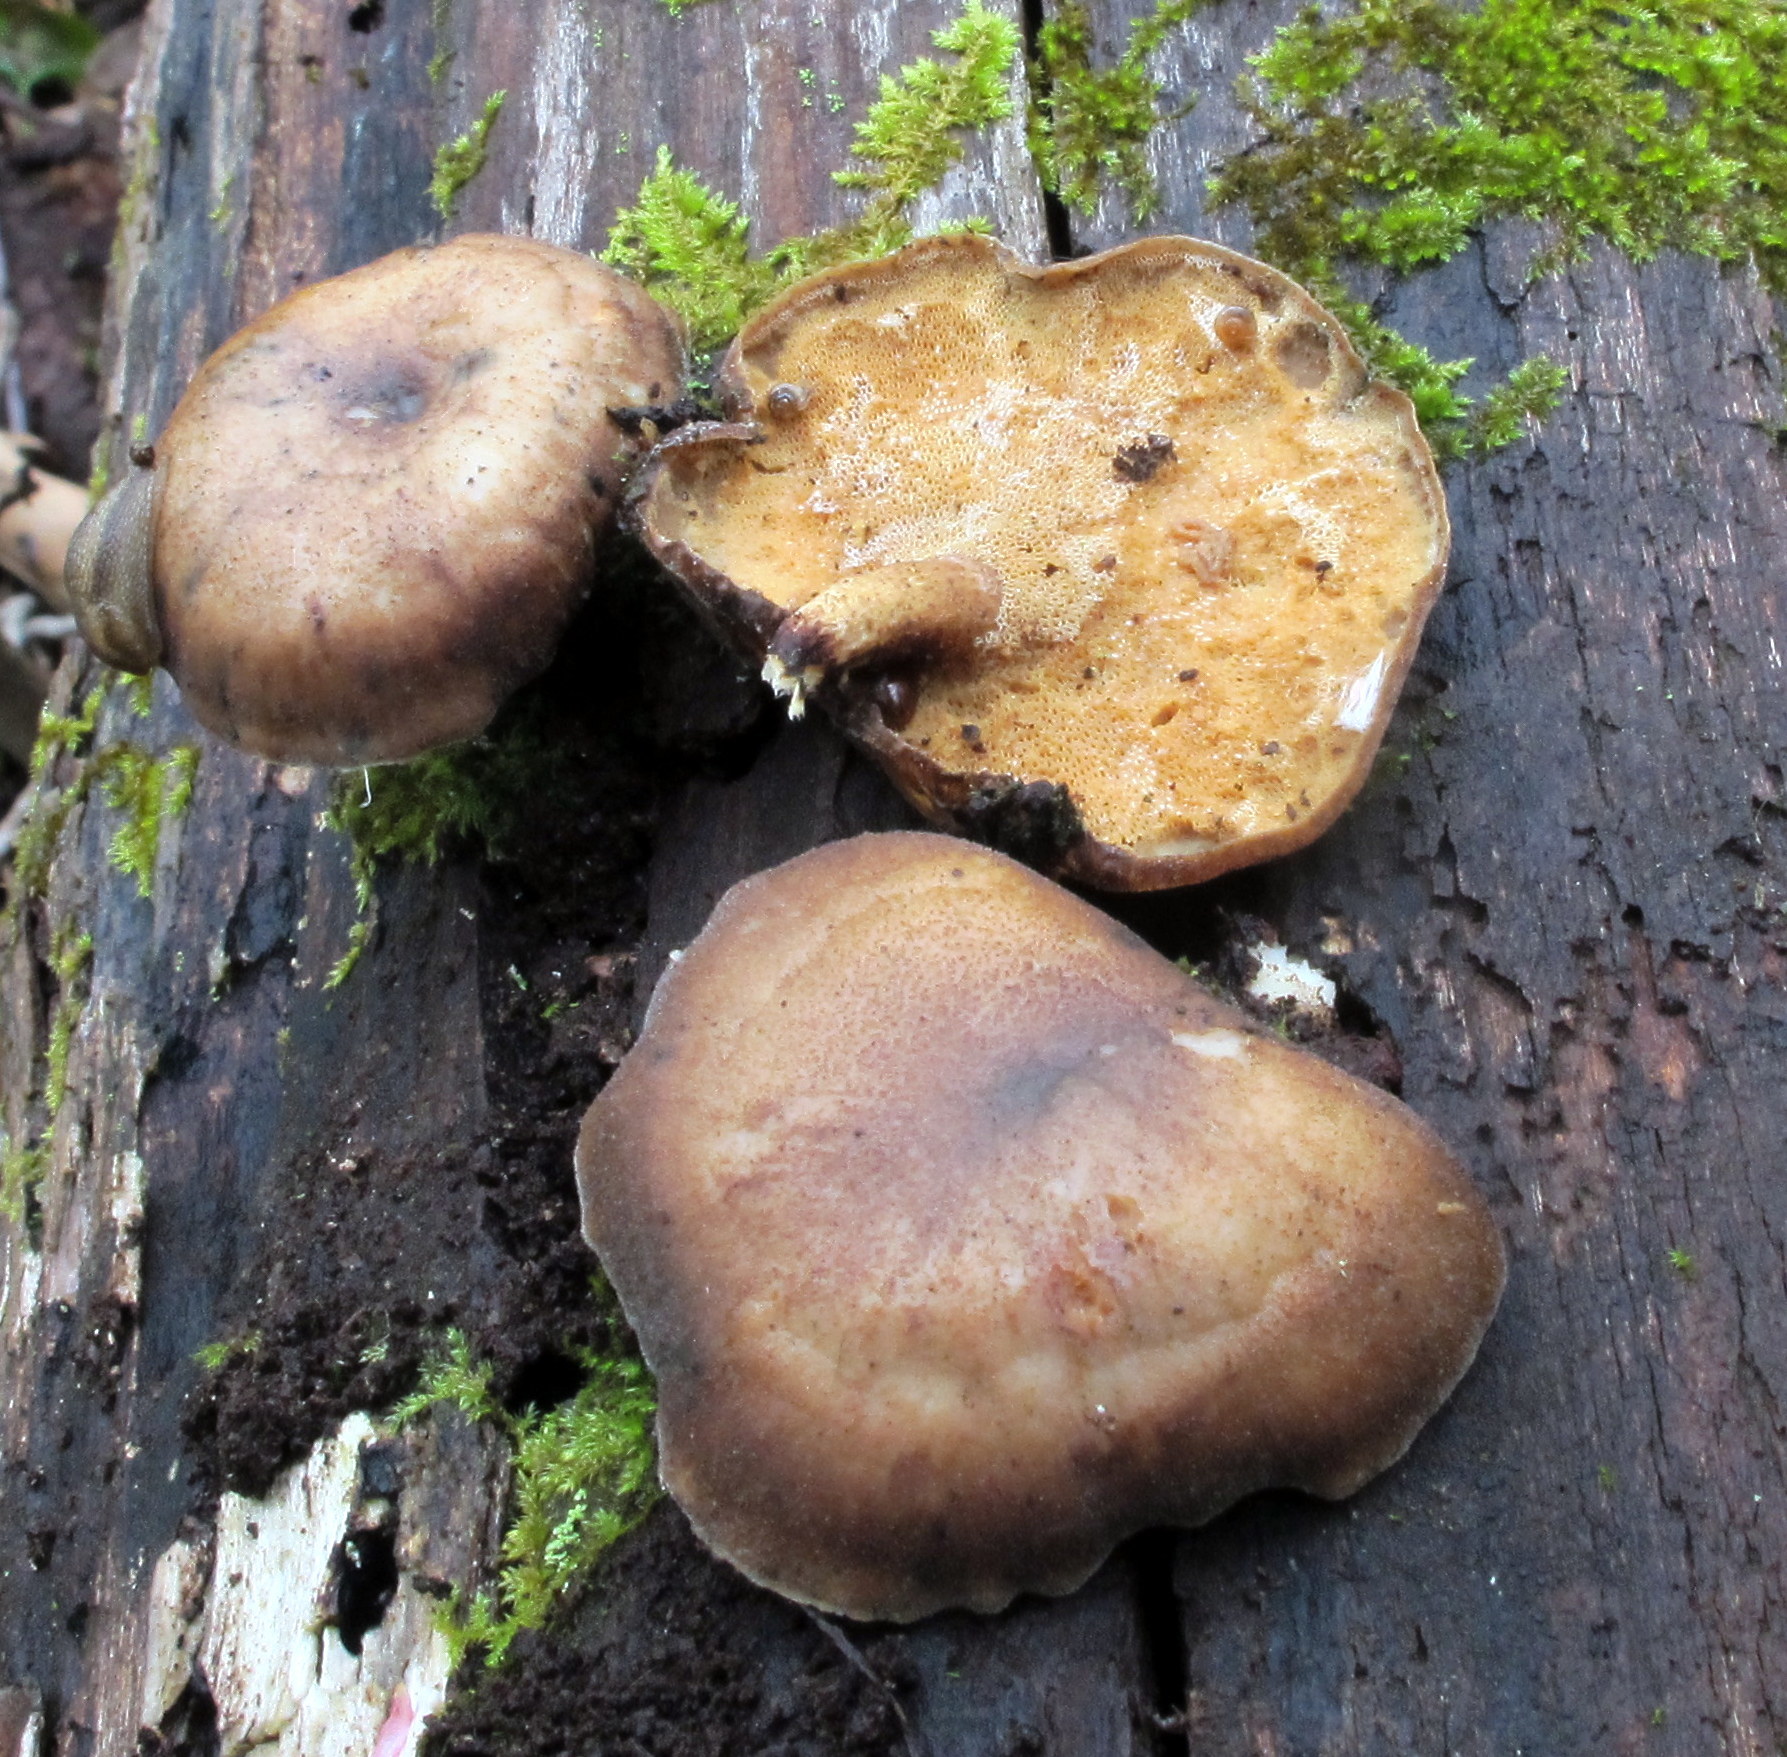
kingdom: Fungi
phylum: Basidiomycota
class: Agaricomycetes
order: Polyporales
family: Polyporaceae
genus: Lentinus
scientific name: Lentinus brumalis
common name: Winter polypore
